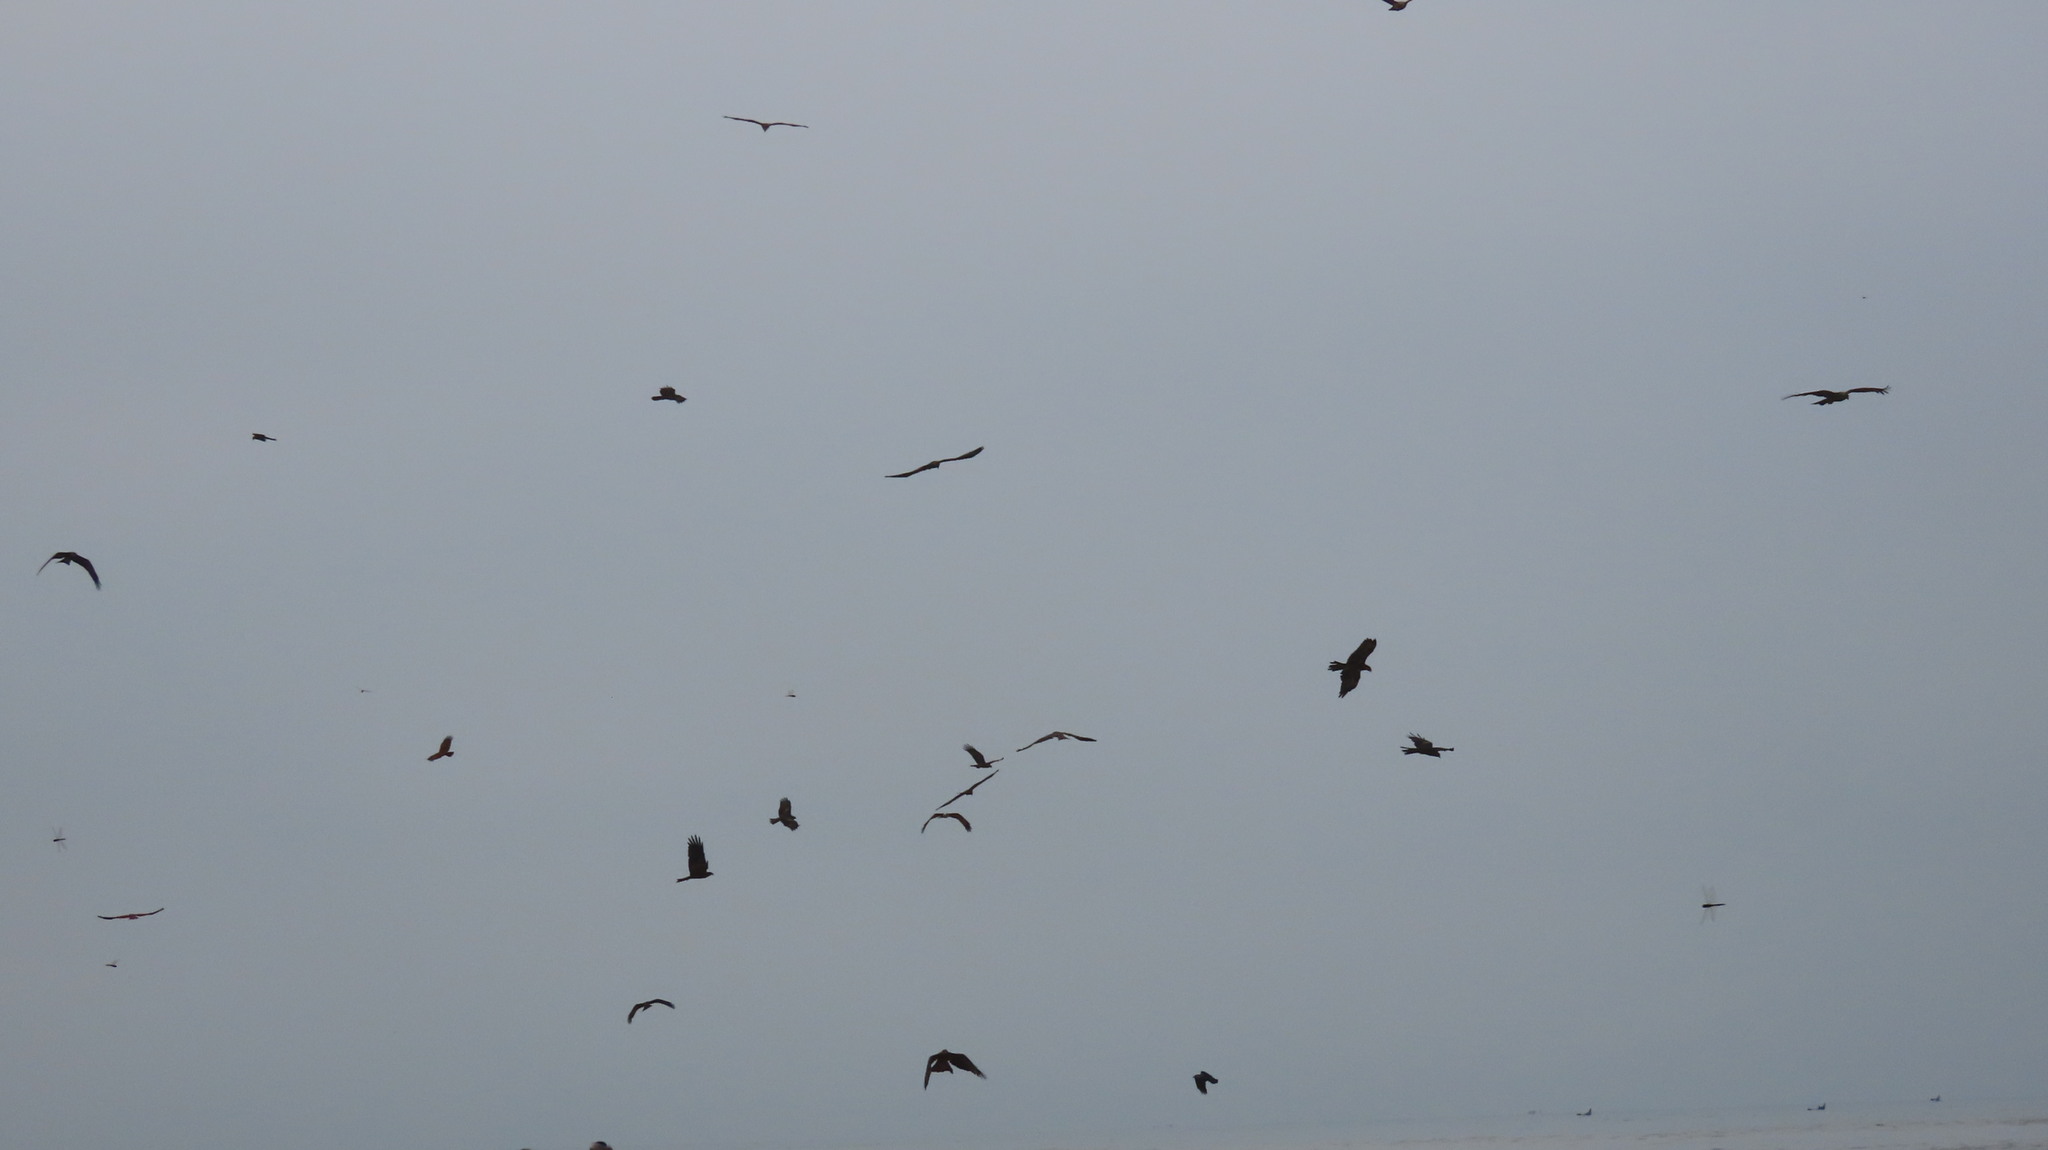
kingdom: Animalia
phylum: Chordata
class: Aves
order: Accipitriformes
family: Accipitridae
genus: Milvus
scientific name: Milvus migrans
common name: Black kite
